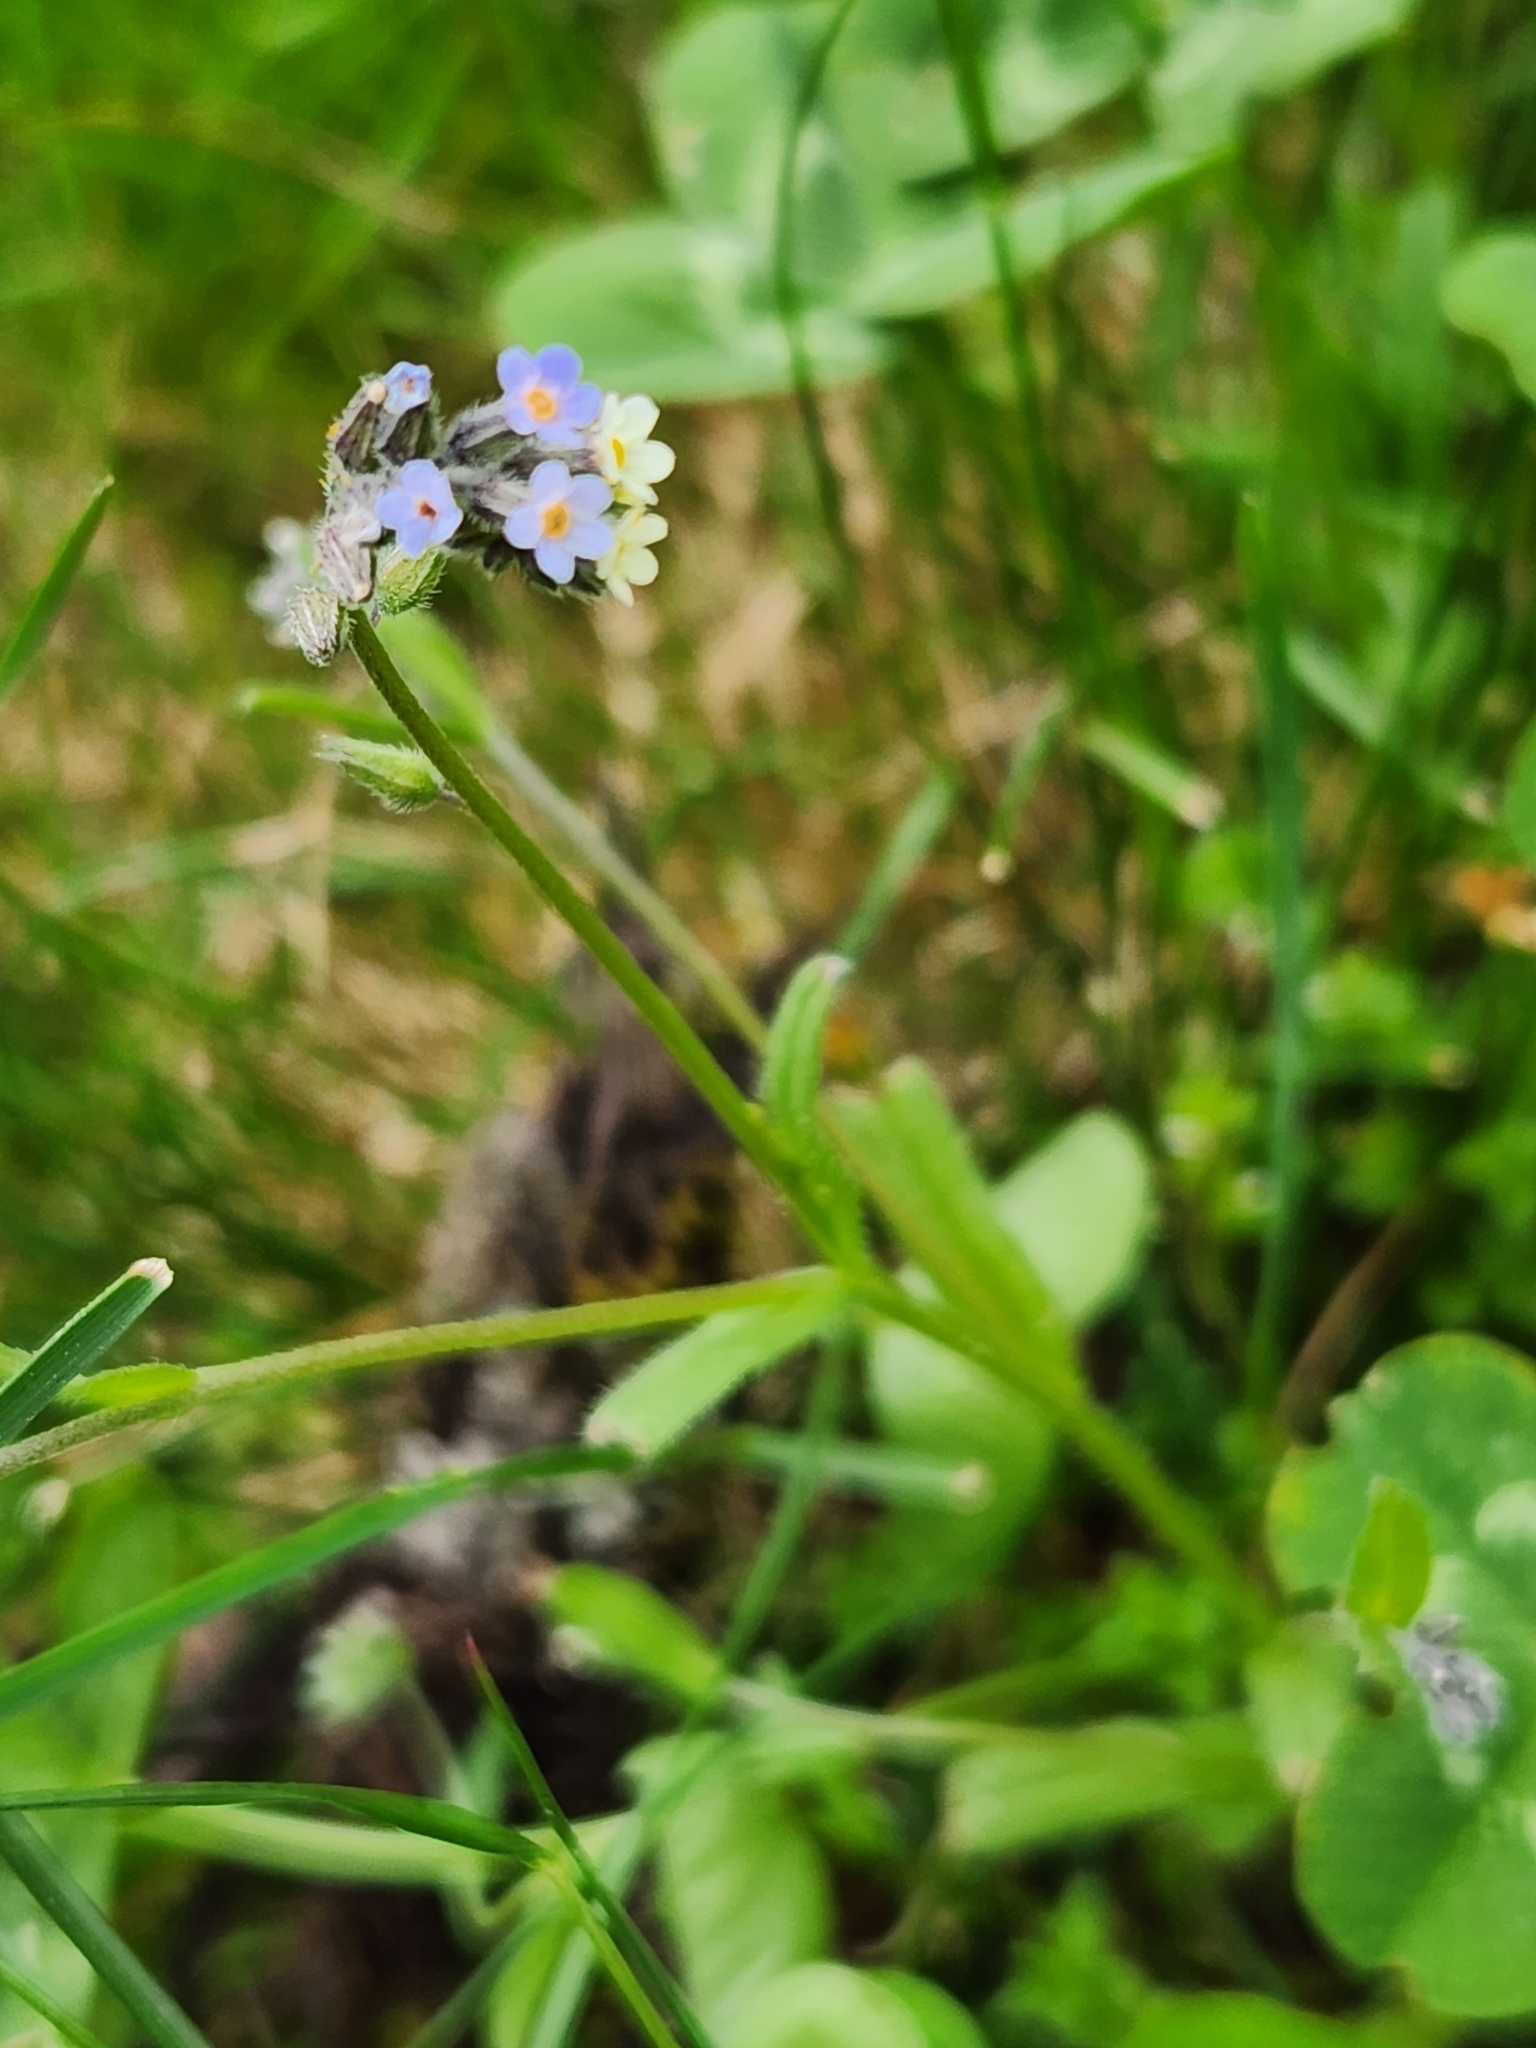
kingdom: Plantae
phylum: Tracheophyta
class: Magnoliopsida
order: Boraginales
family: Boraginaceae
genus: Myosotis
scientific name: Myosotis discolor
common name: Changing forget-me-not
